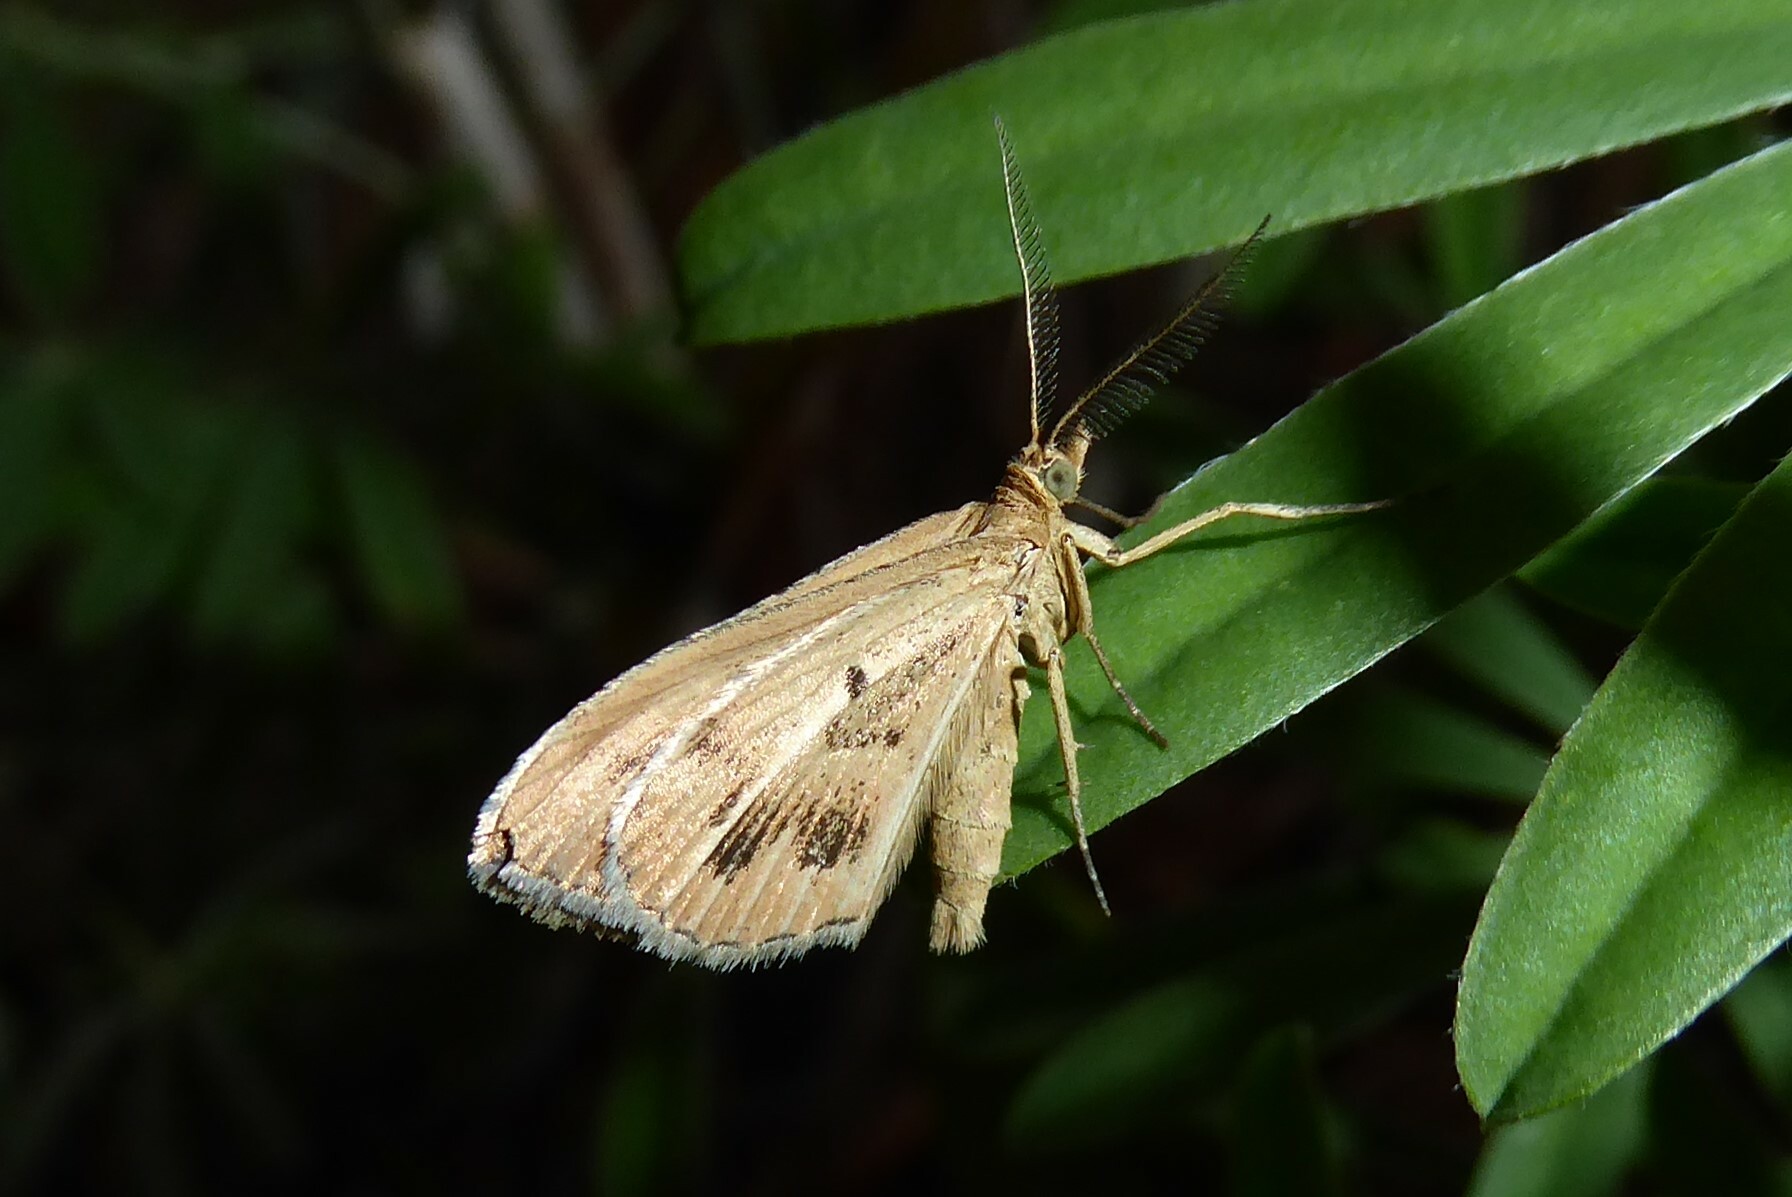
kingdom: Animalia
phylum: Arthropoda
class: Insecta
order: Lepidoptera
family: Geometridae
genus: Asaphodes
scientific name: Asaphodes abrogata
